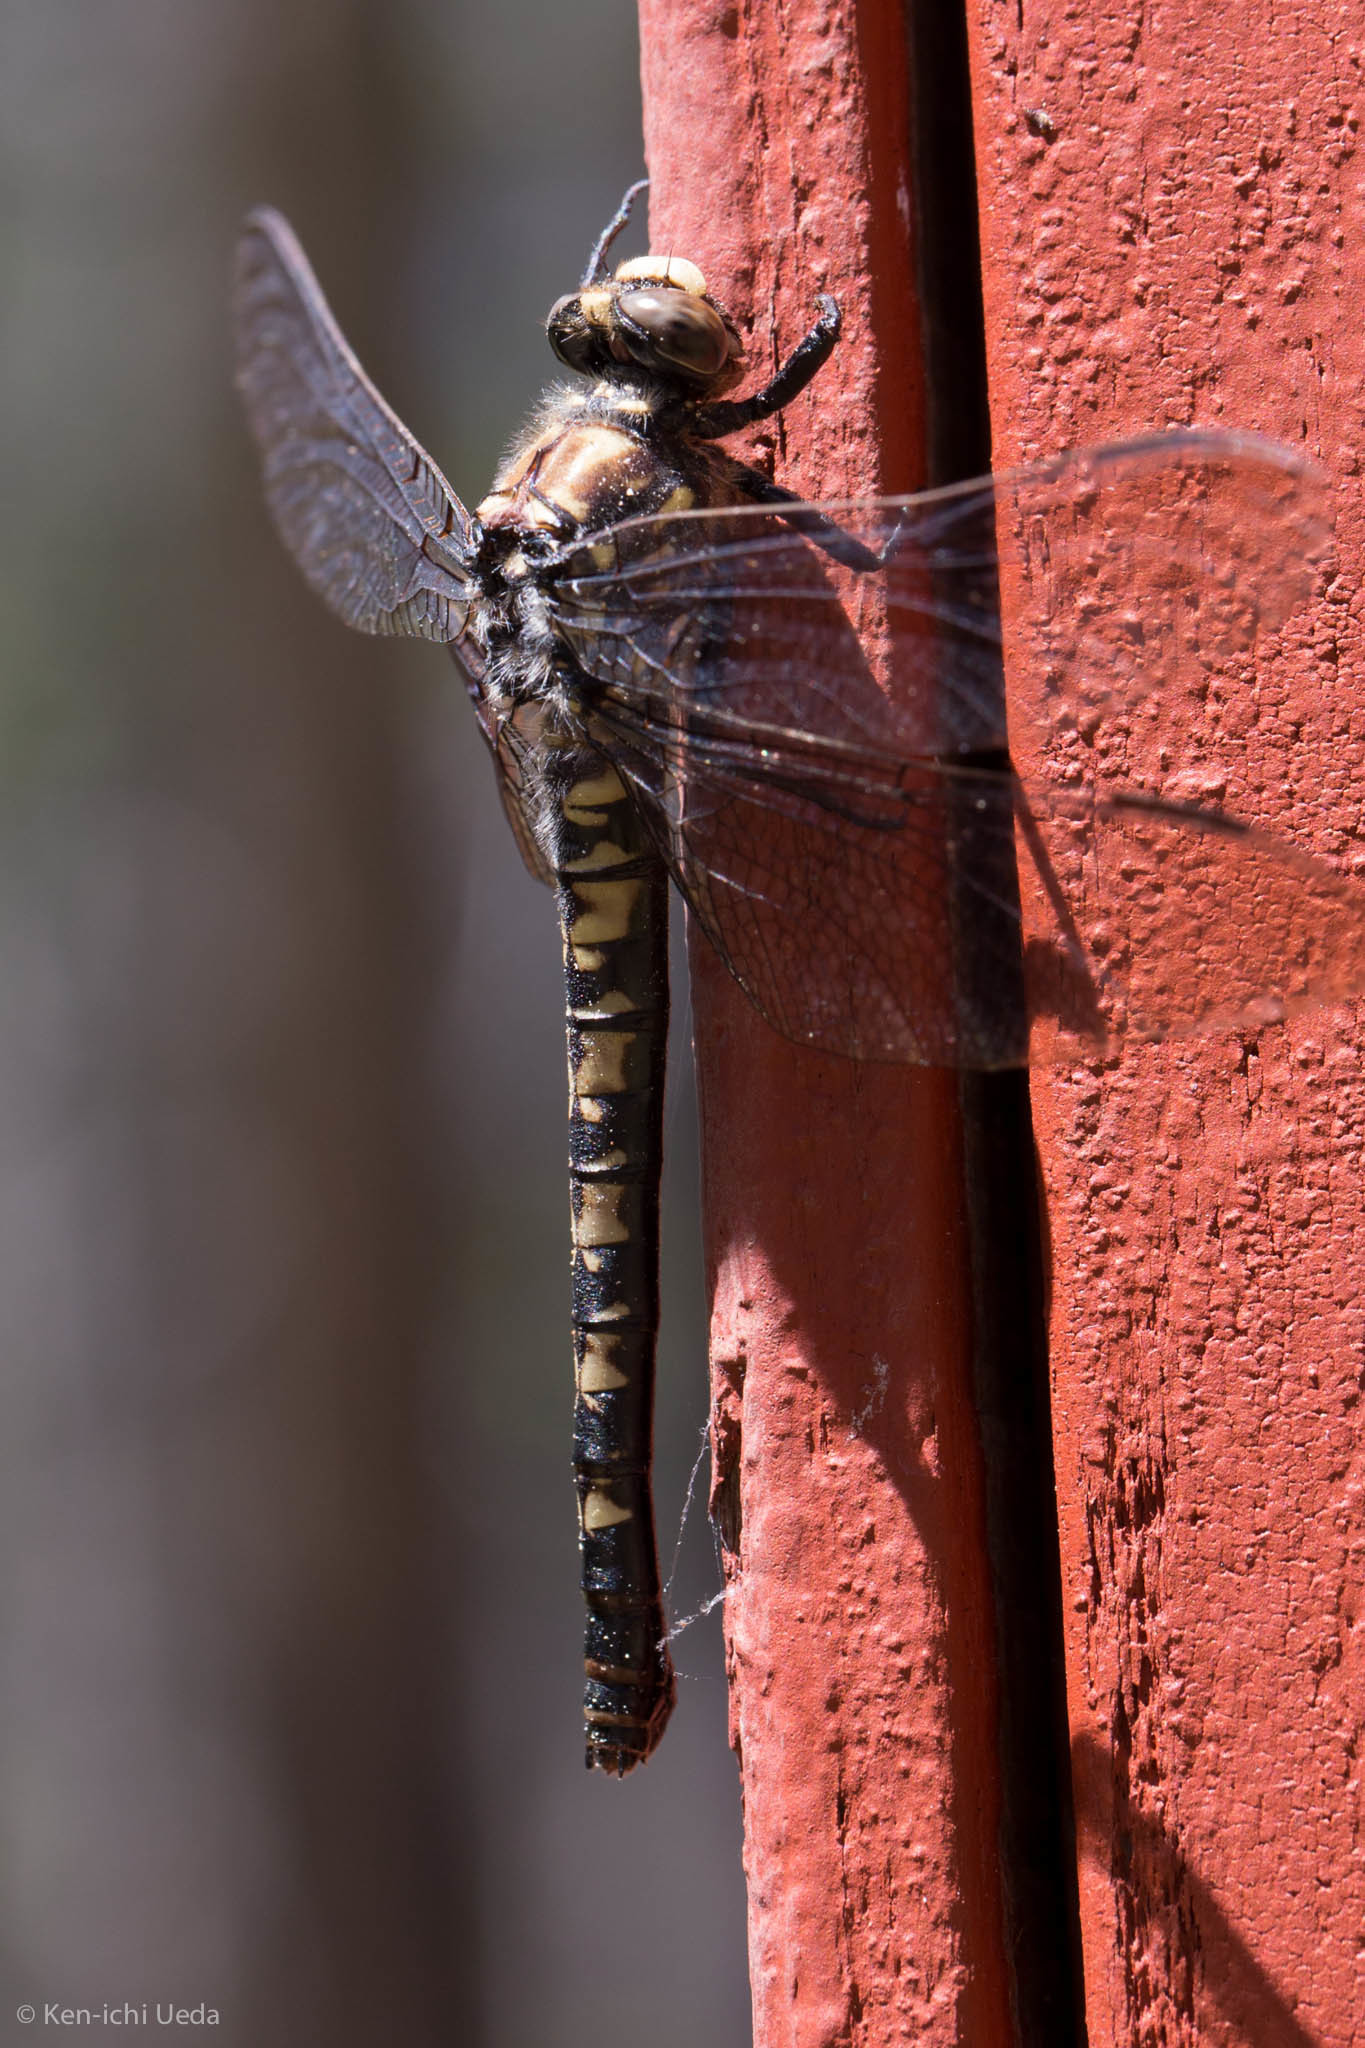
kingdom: Animalia
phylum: Arthropoda
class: Insecta
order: Odonata
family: Petaluridae
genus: Tanypteryx
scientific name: Tanypteryx hageni
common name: Black petaltail
